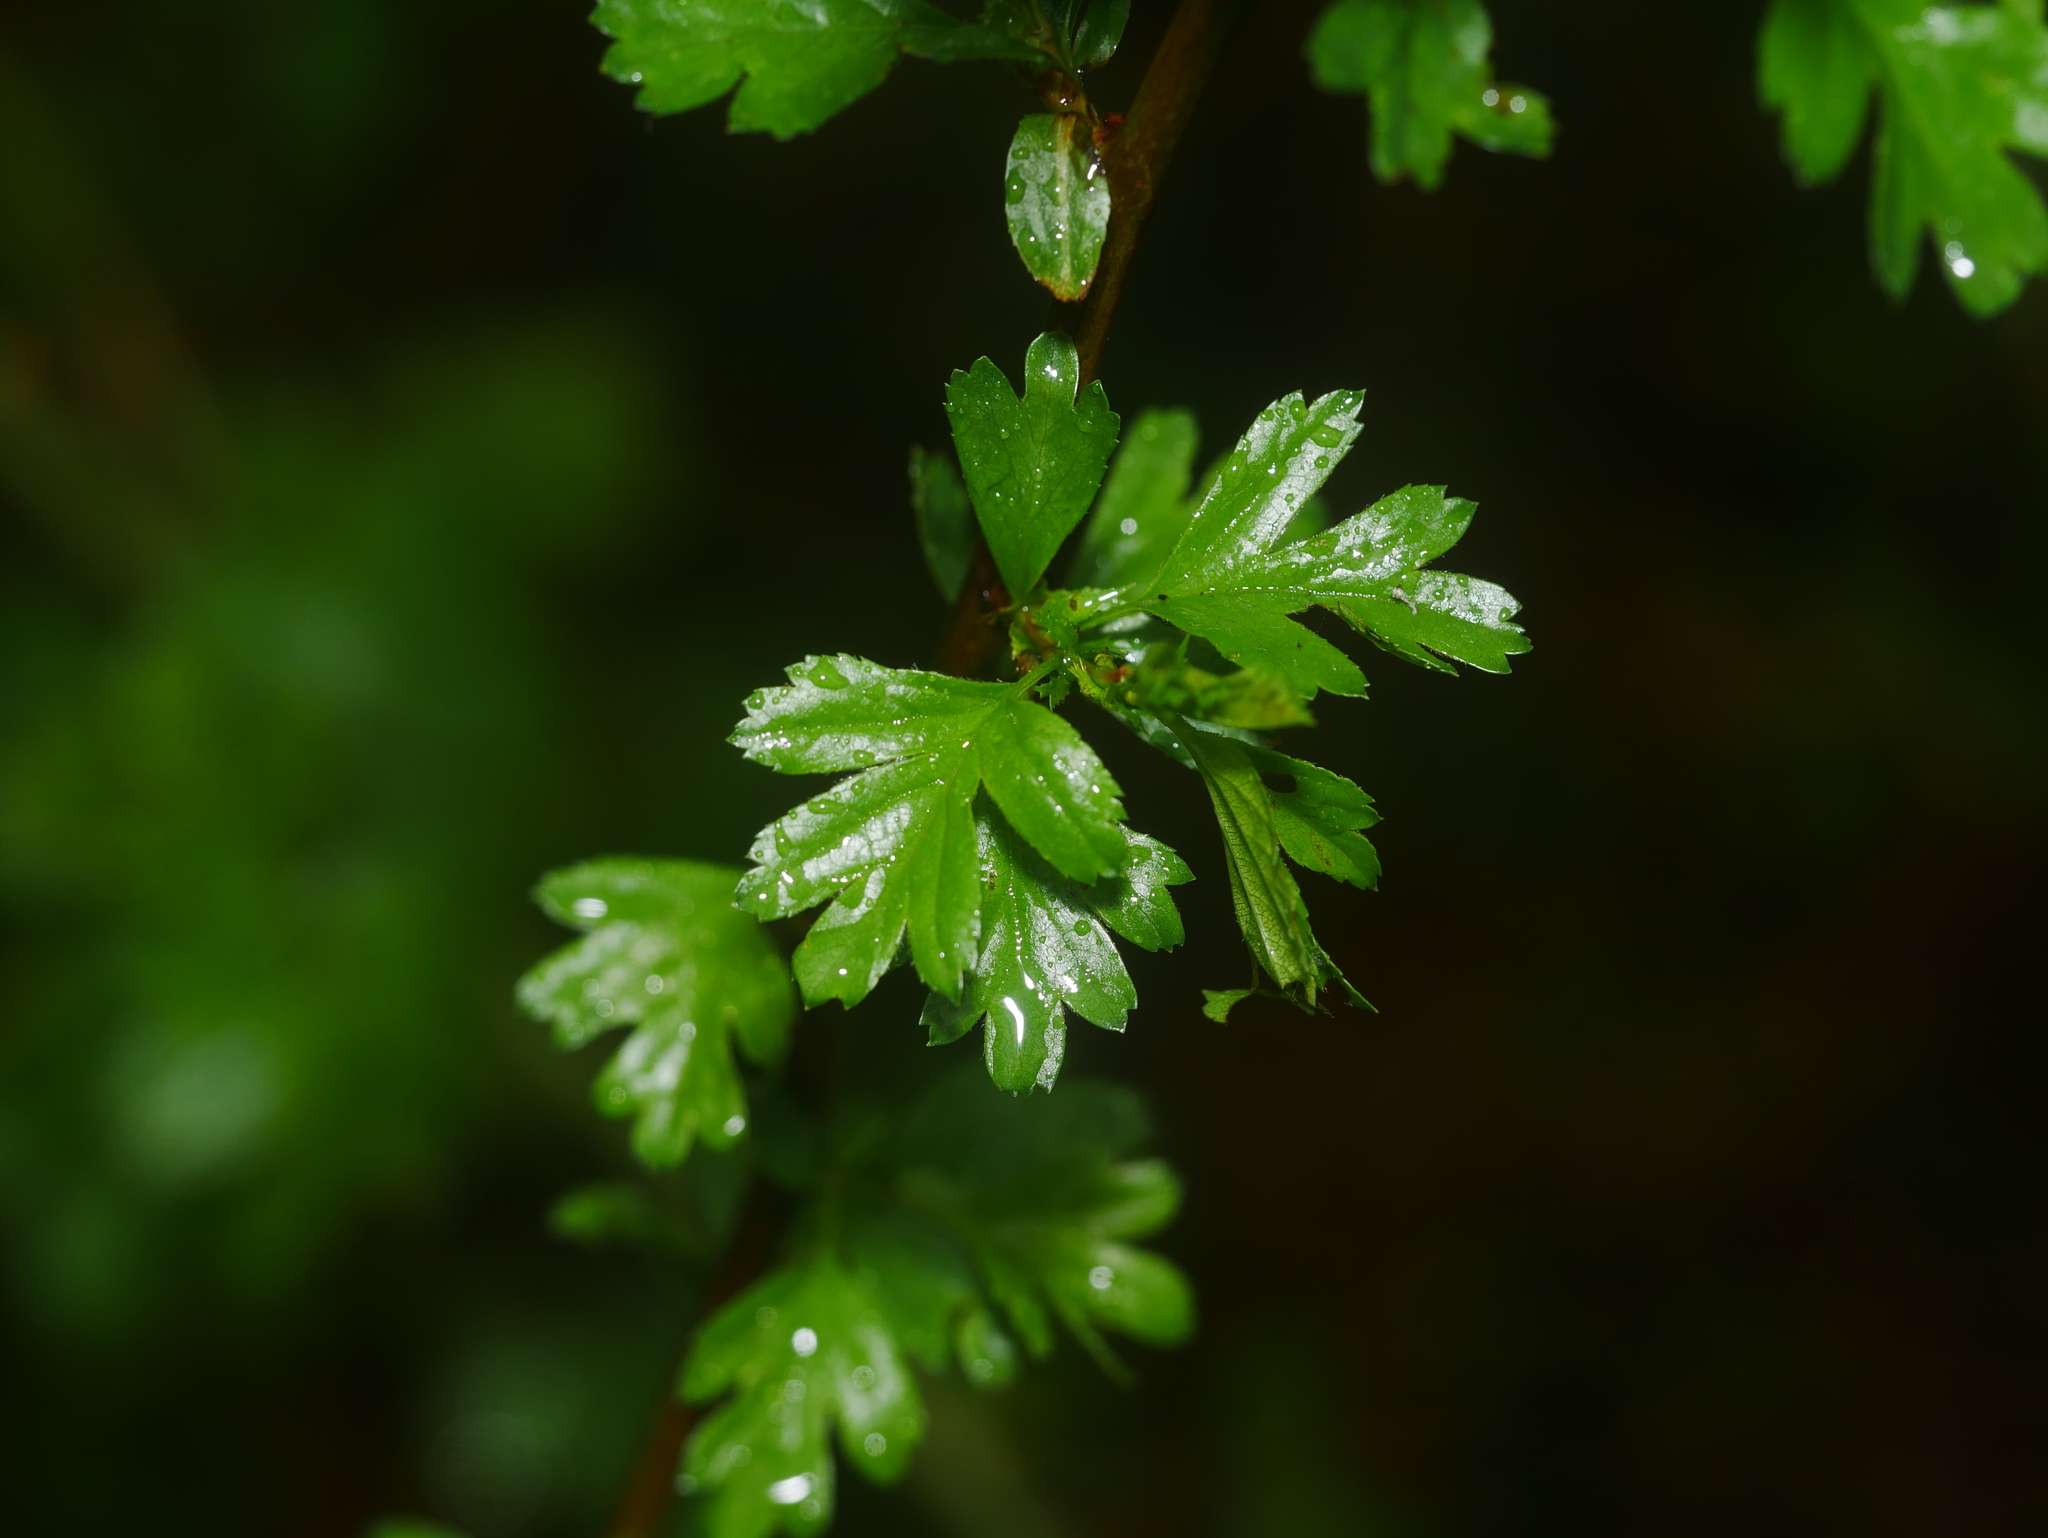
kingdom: Plantae
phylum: Tracheophyta
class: Magnoliopsida
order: Rosales
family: Rosaceae
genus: Crataegus
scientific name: Crataegus monogyna
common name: Hawthorn
